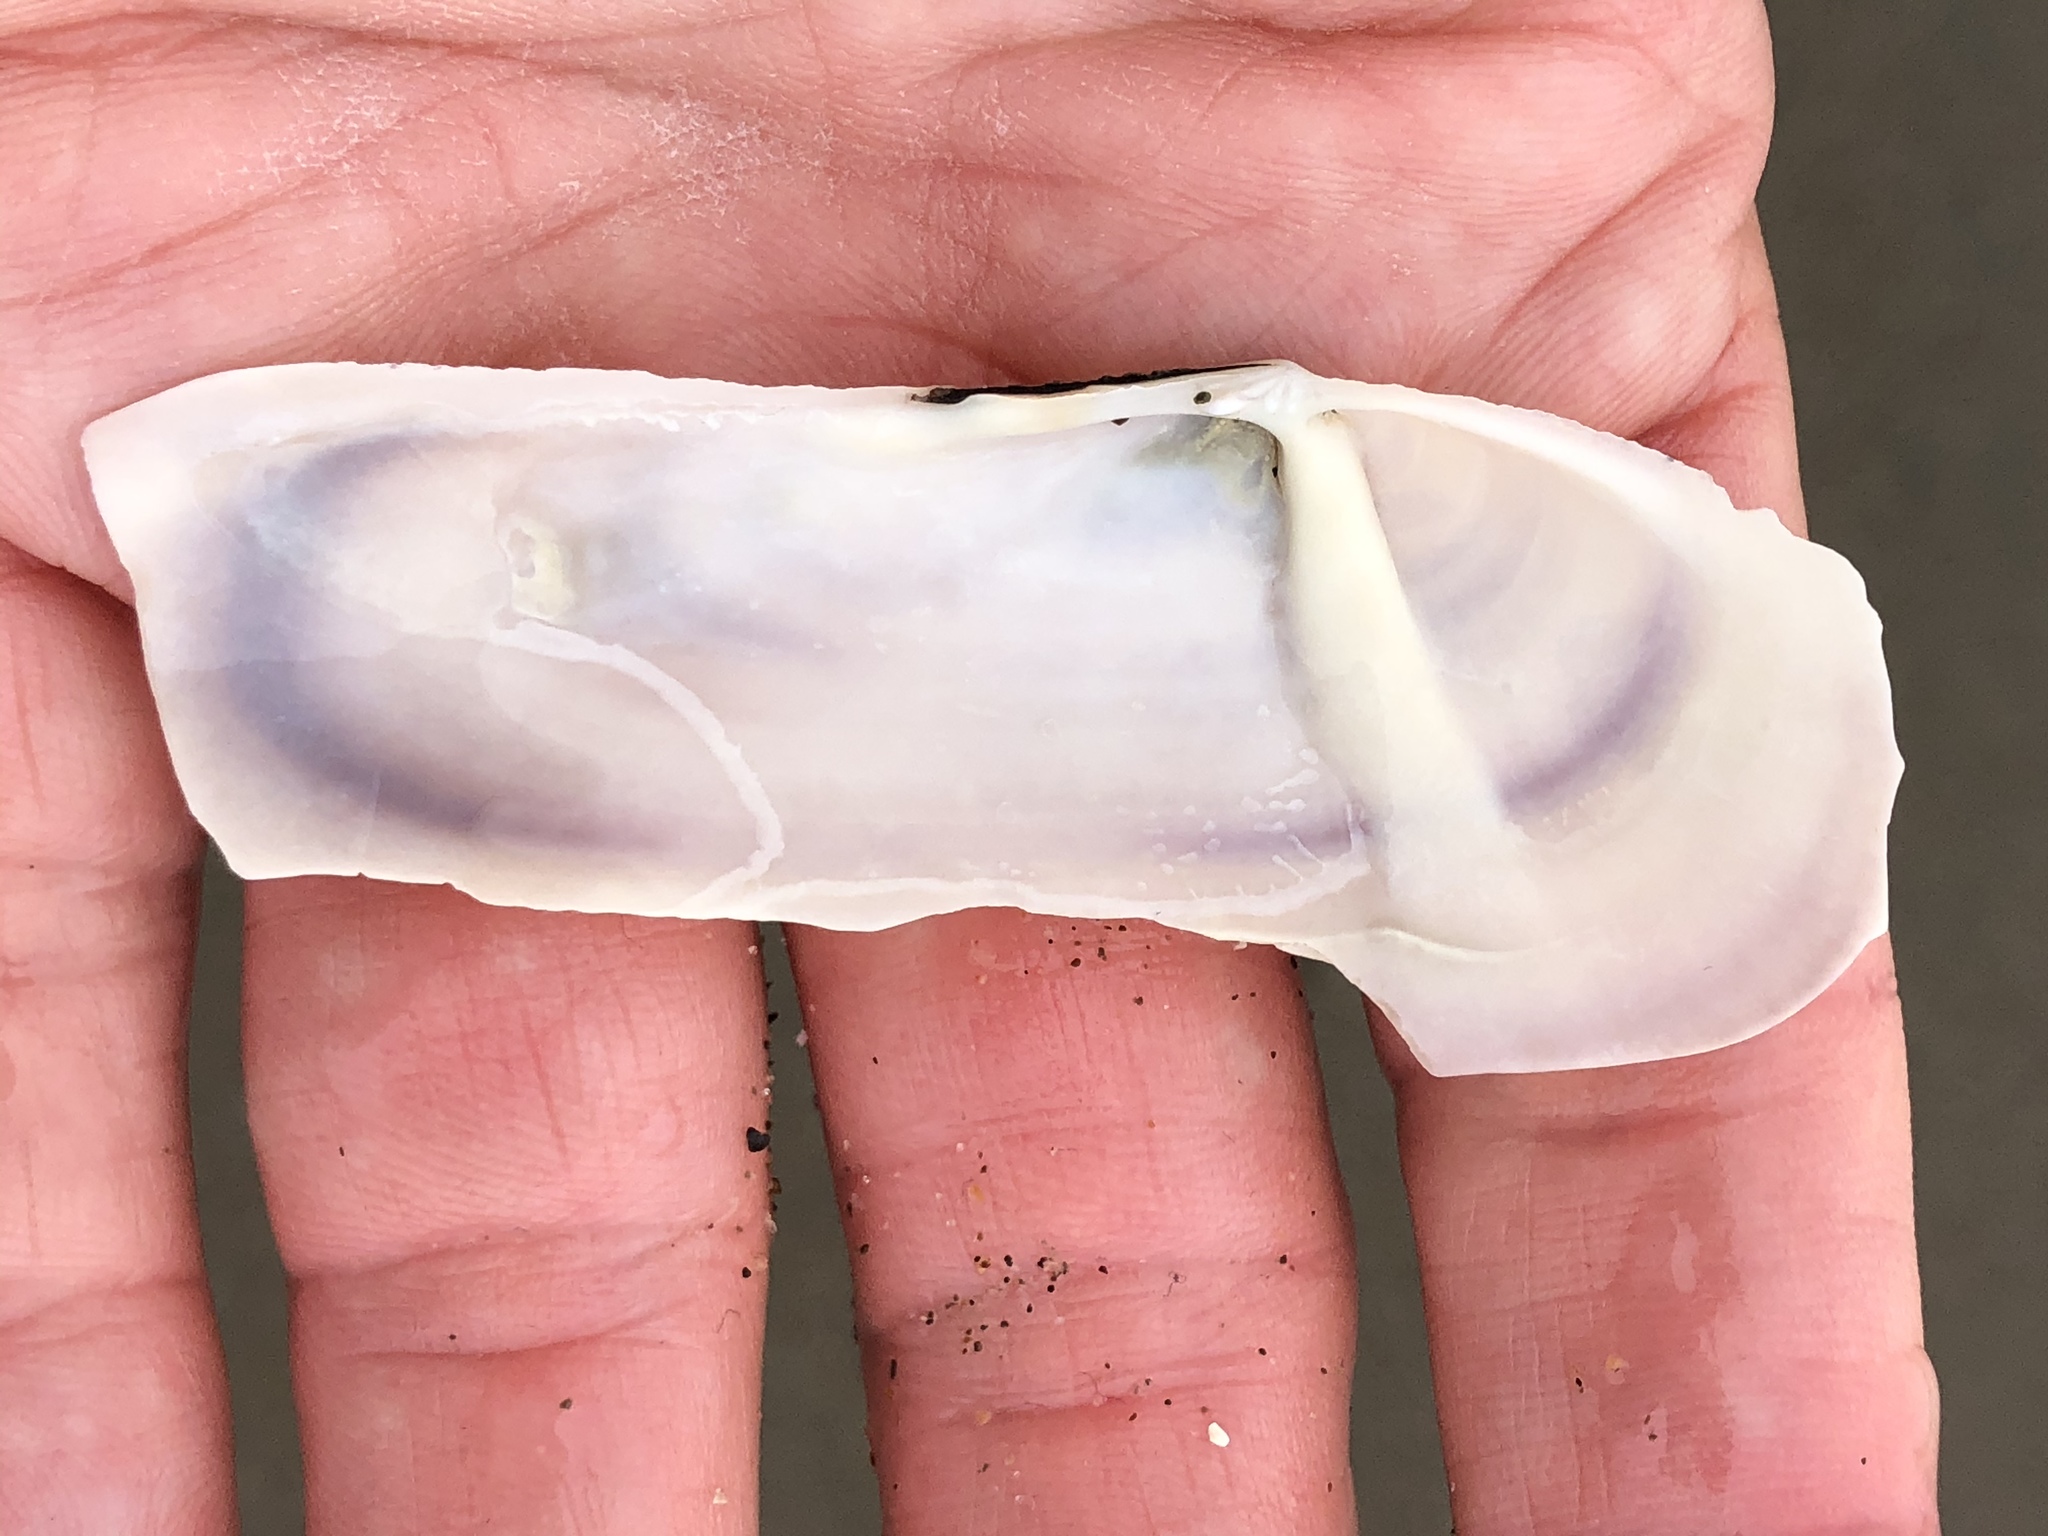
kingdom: Animalia
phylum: Mollusca
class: Bivalvia
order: Adapedonta
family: Pharidae
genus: Siliqua
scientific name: Siliqua patula
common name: Pacific razor clam
